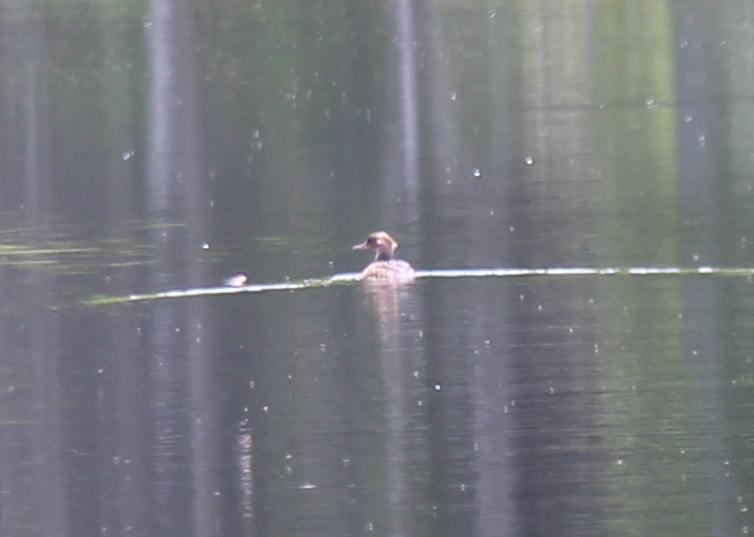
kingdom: Animalia
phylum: Chordata
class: Aves
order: Anseriformes
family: Anatidae
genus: Lophodytes
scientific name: Lophodytes cucullatus
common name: Hooded merganser
